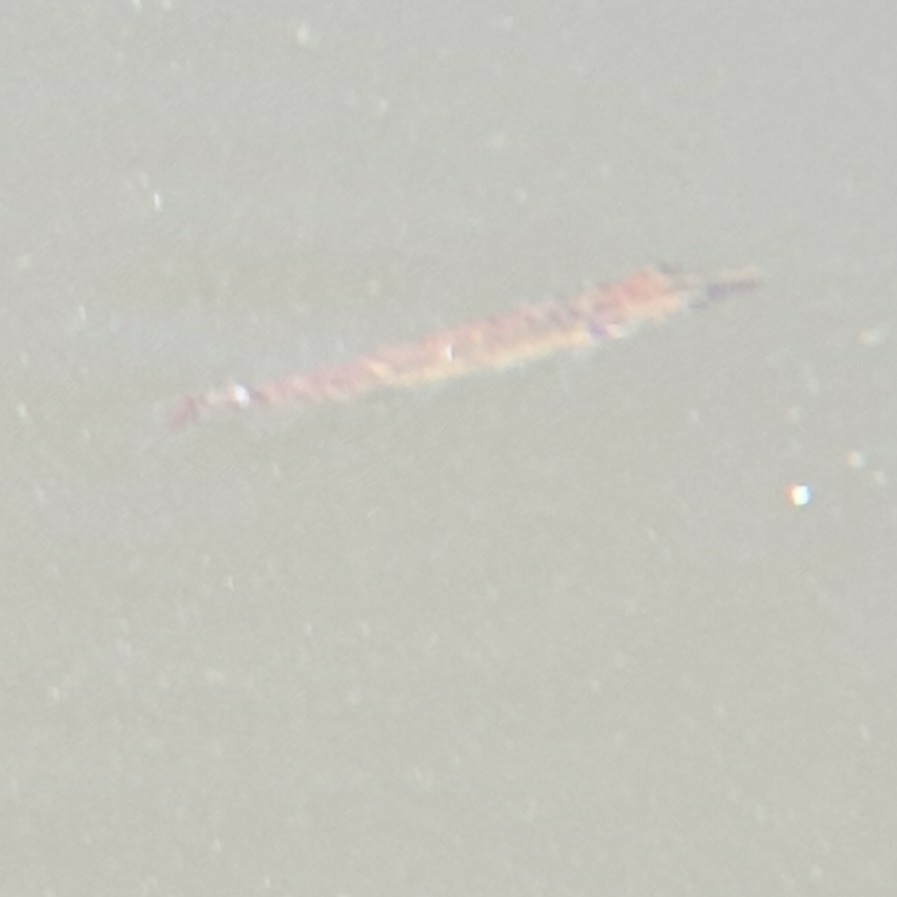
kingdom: Animalia
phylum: Chordata
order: Esociformes
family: Esocidae
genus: Esox
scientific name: Esox lucius
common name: Northern pike
